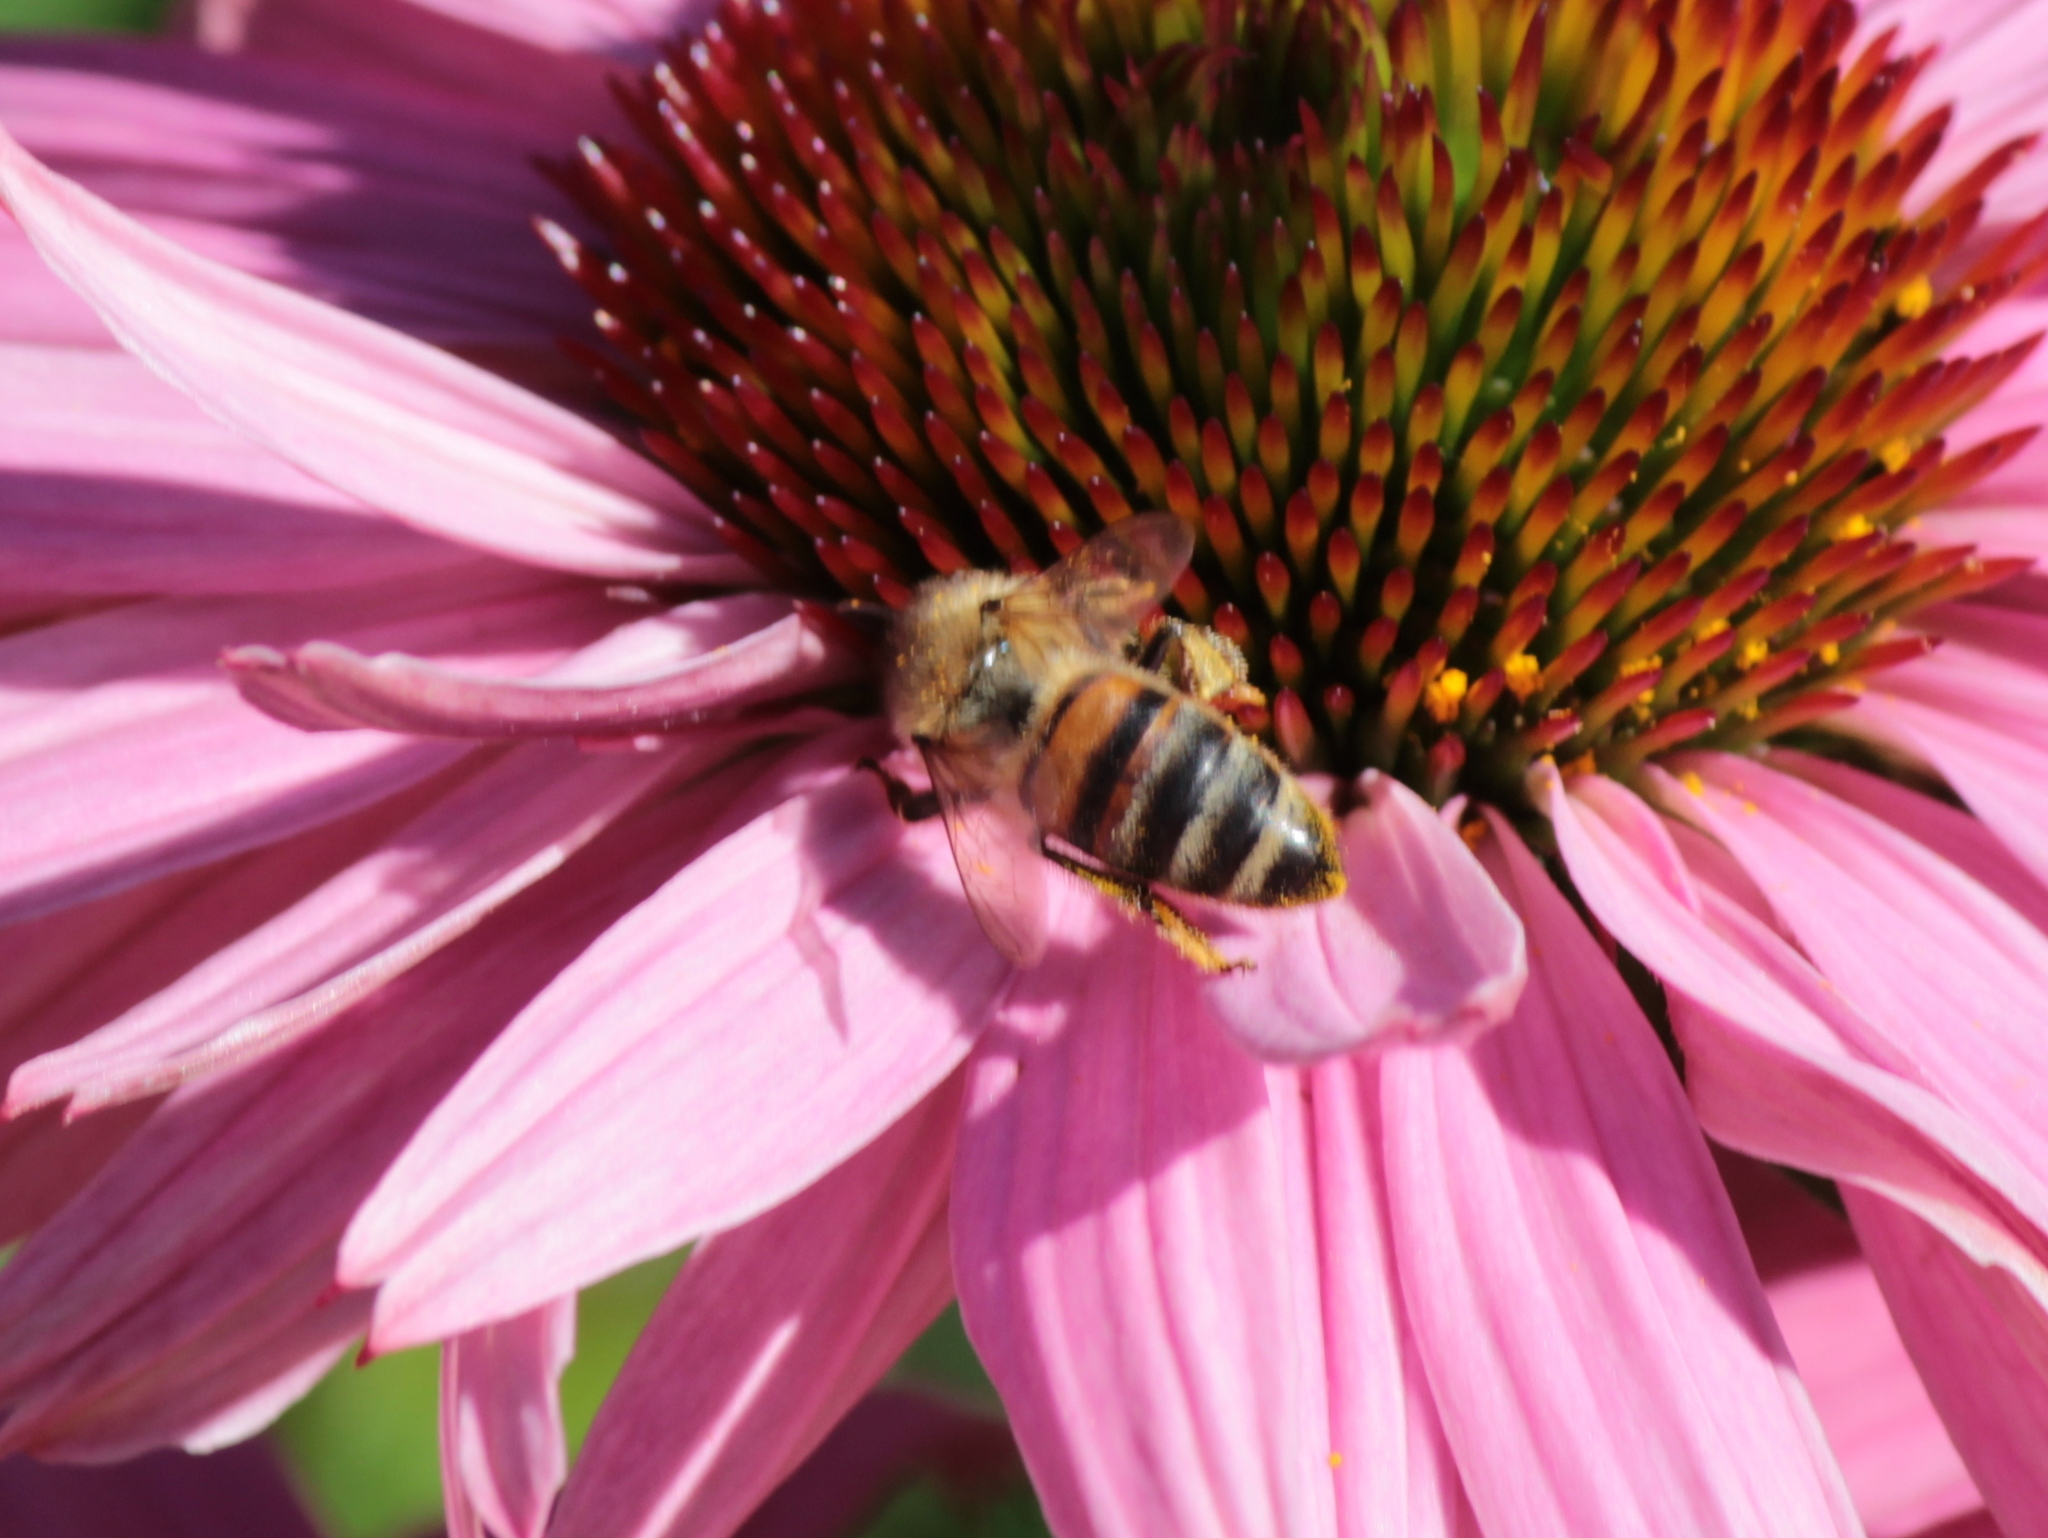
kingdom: Animalia
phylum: Arthropoda
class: Insecta
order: Hymenoptera
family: Apidae
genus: Apis
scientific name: Apis mellifera
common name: Honey bee
